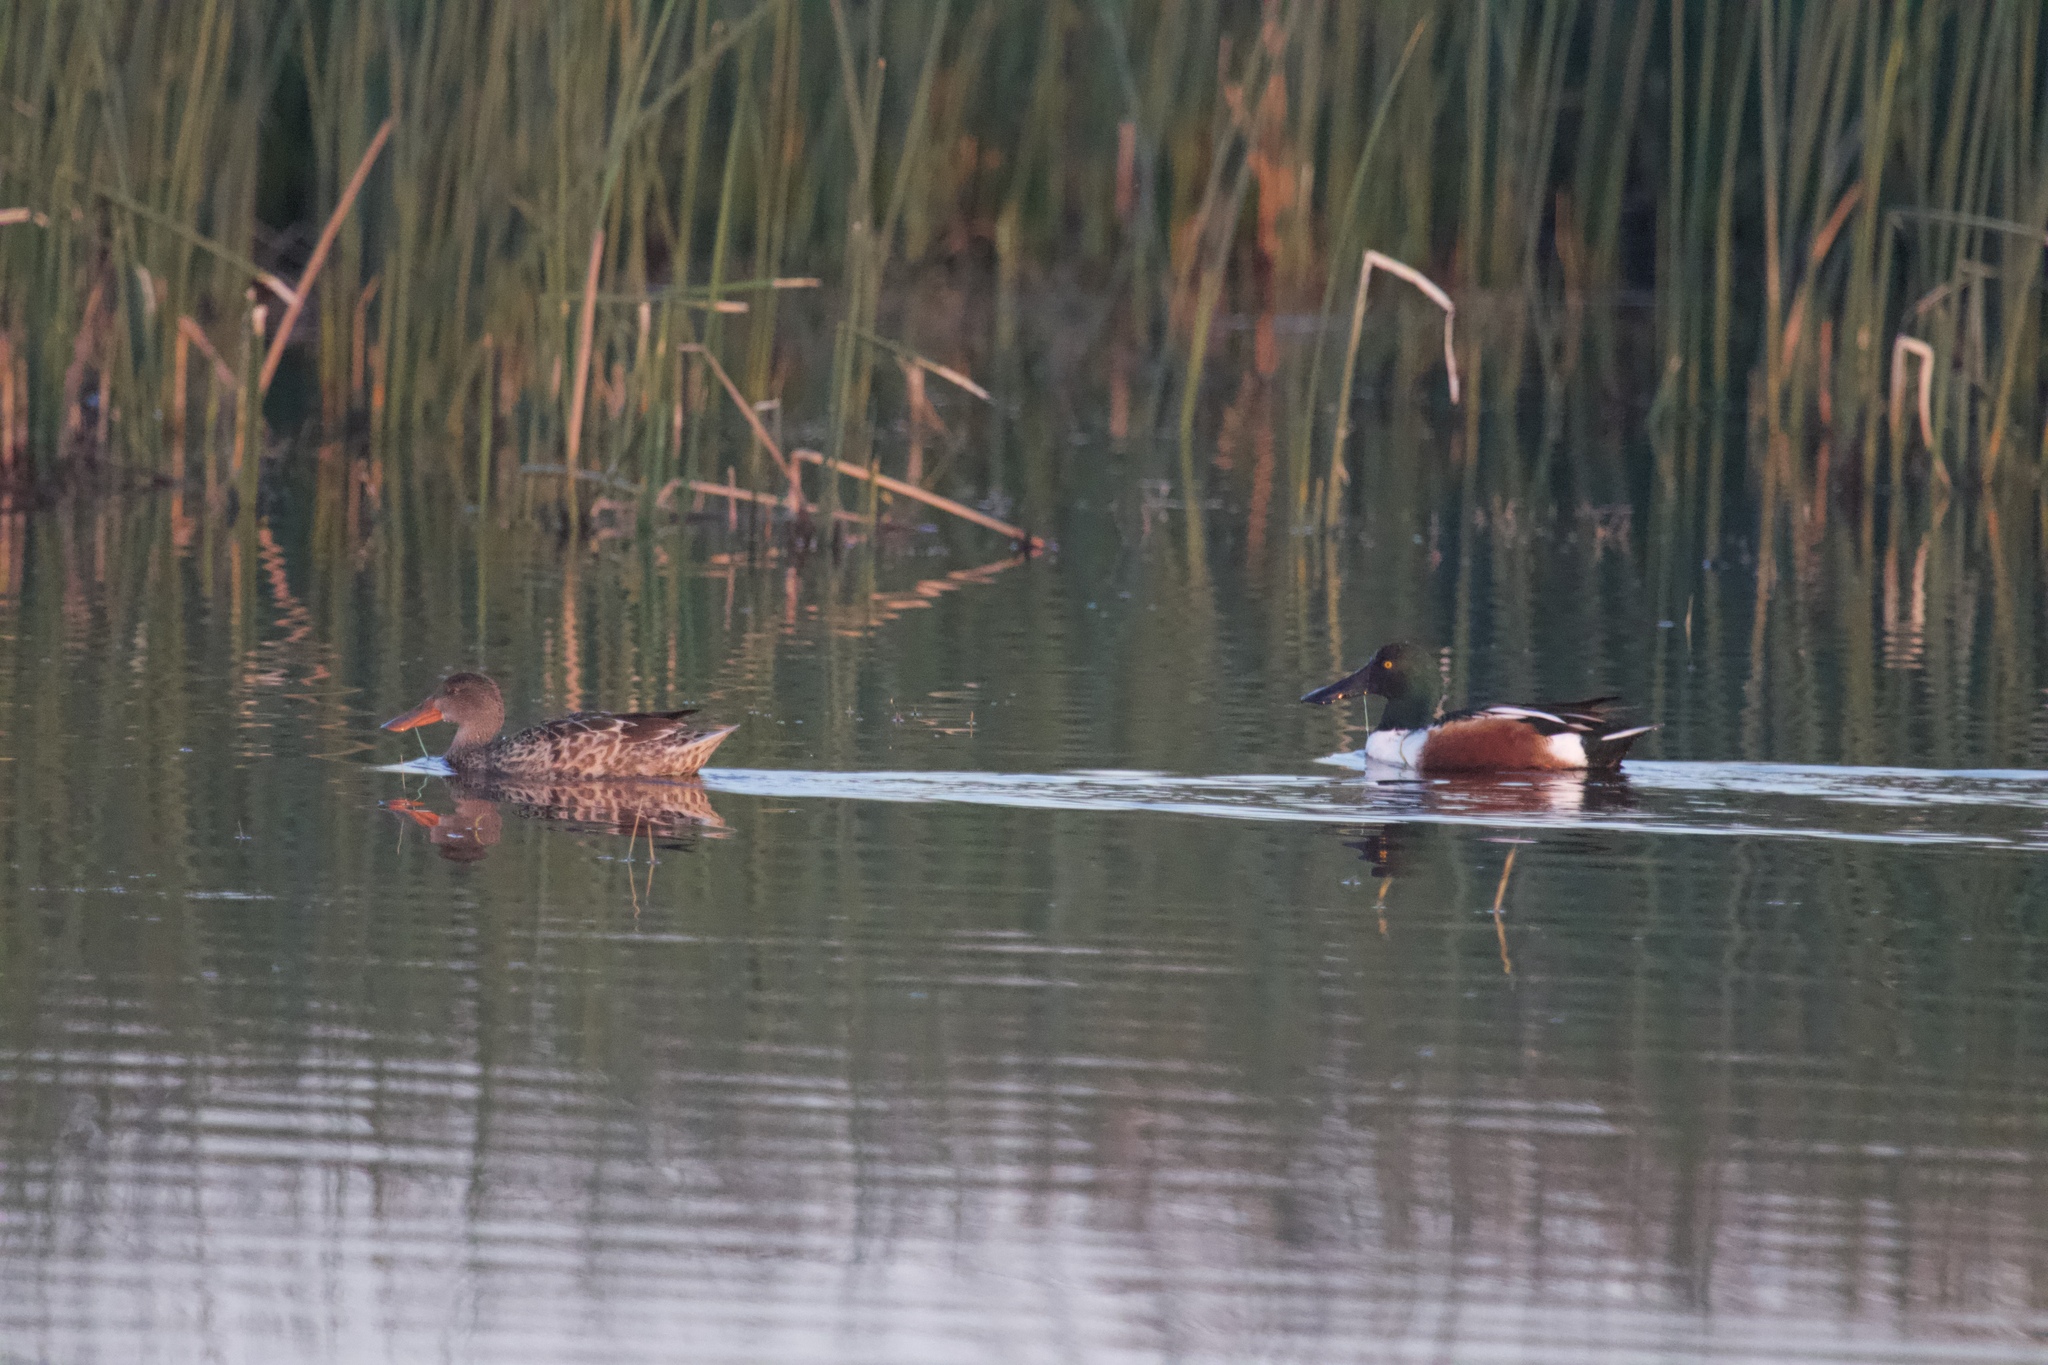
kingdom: Animalia
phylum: Chordata
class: Aves
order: Anseriformes
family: Anatidae
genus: Spatula
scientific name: Spatula clypeata
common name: Northern shoveler
